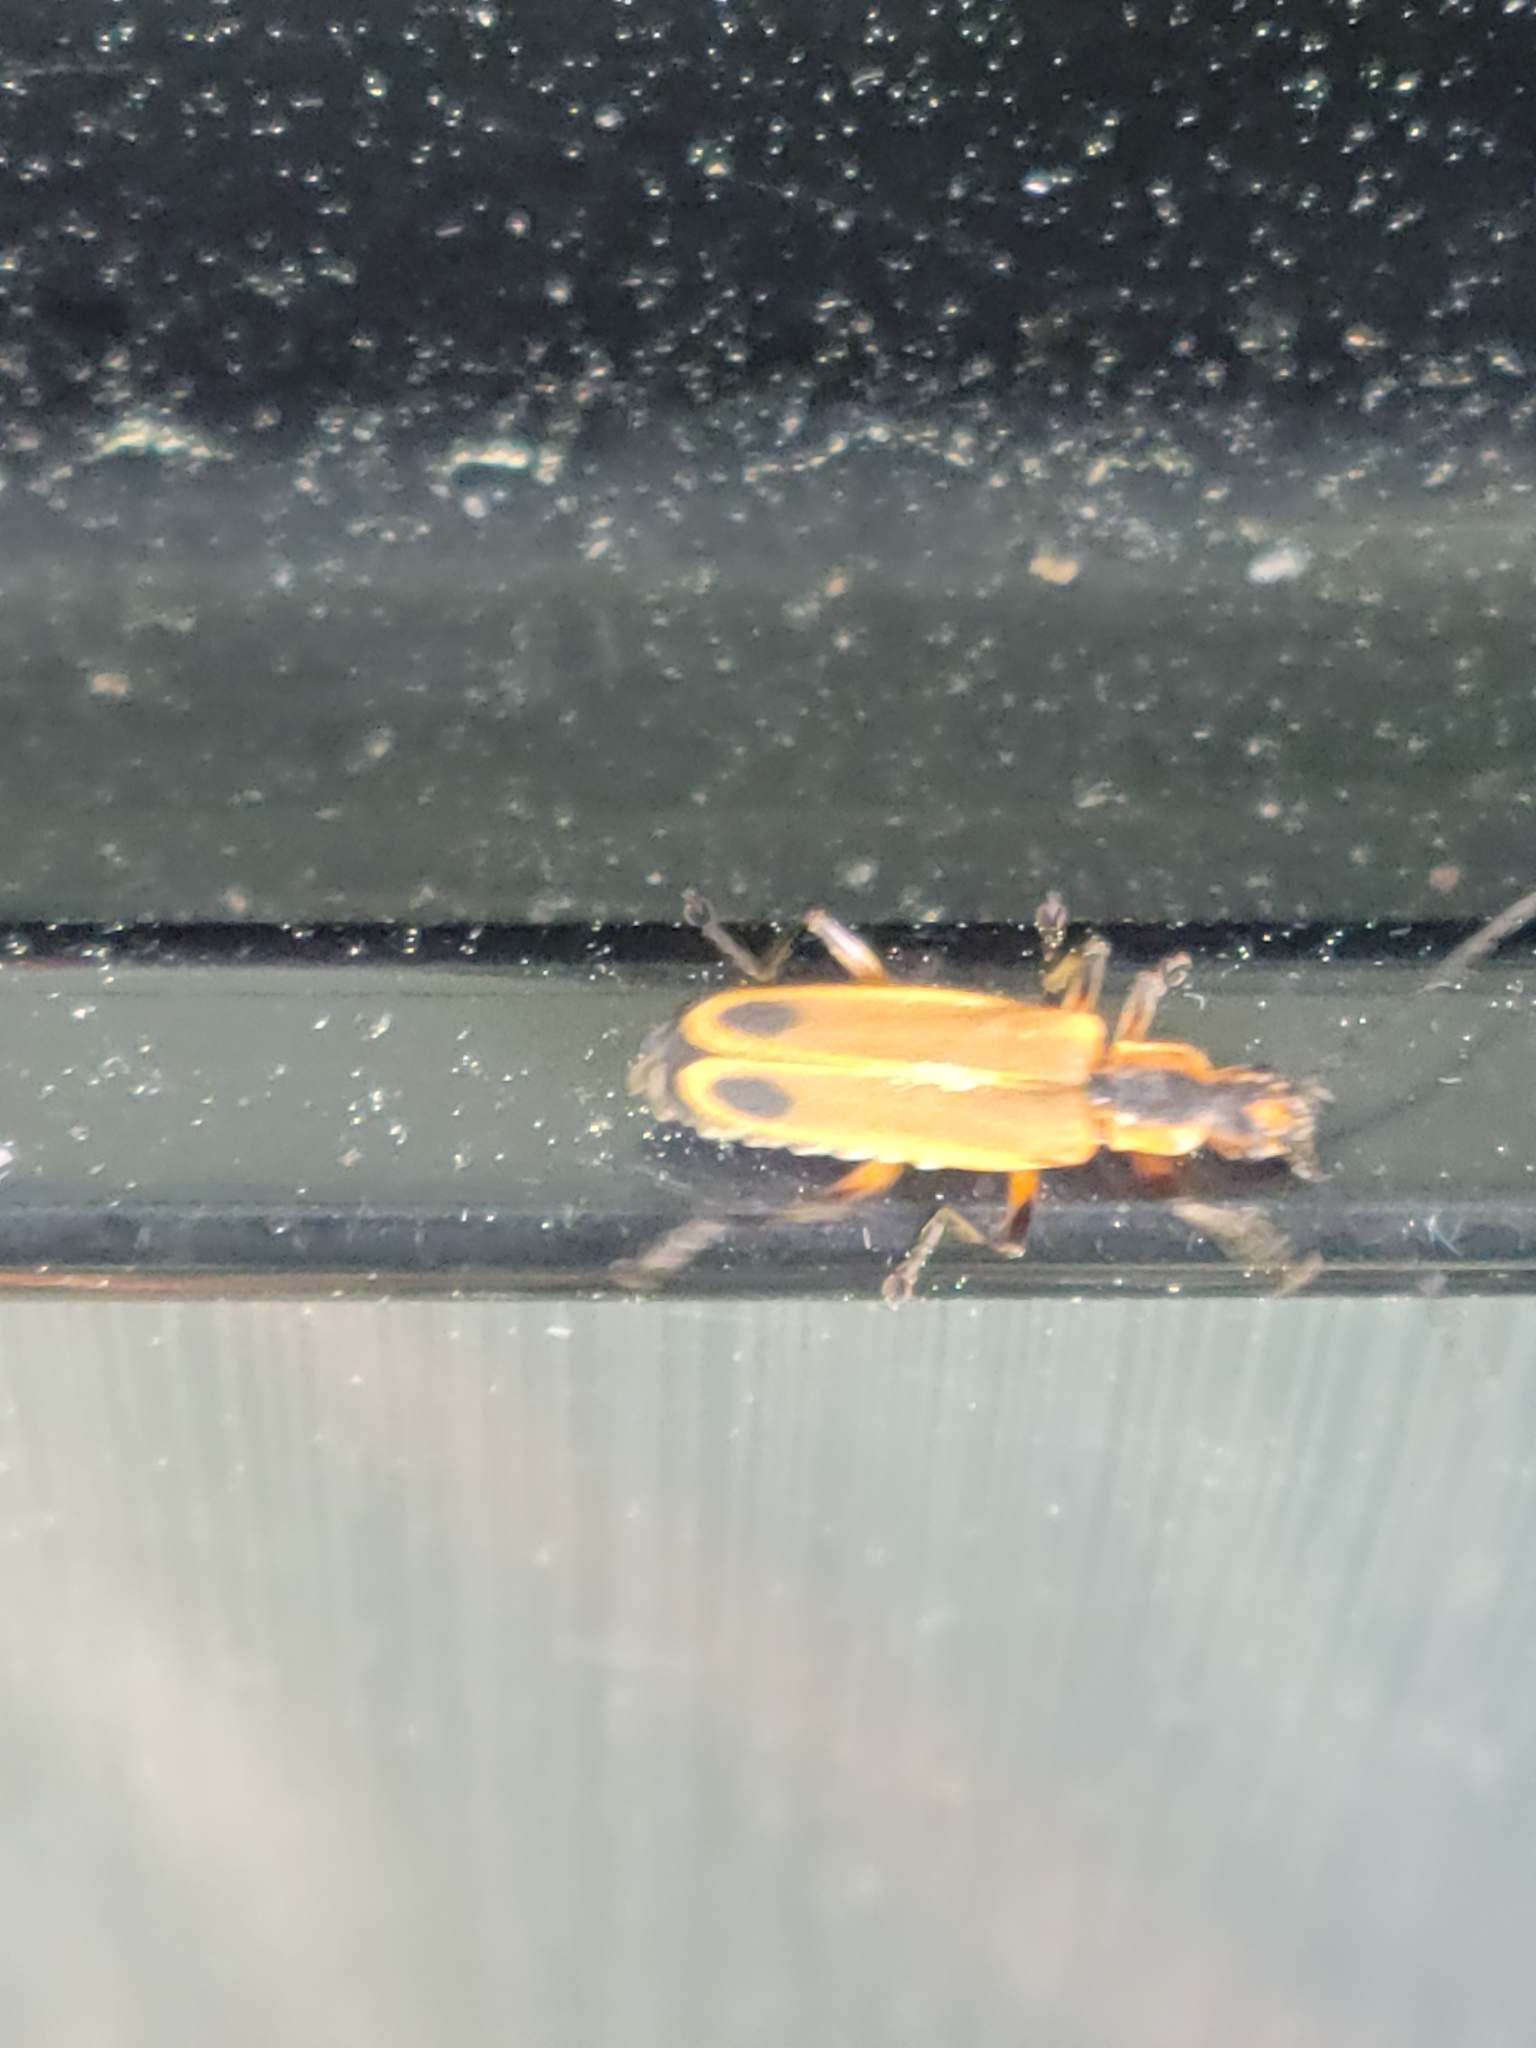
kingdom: Animalia
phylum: Arthropoda
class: Insecta
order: Coleoptera
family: Cantharidae
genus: Chauliognathus
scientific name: Chauliognathus marginatus
